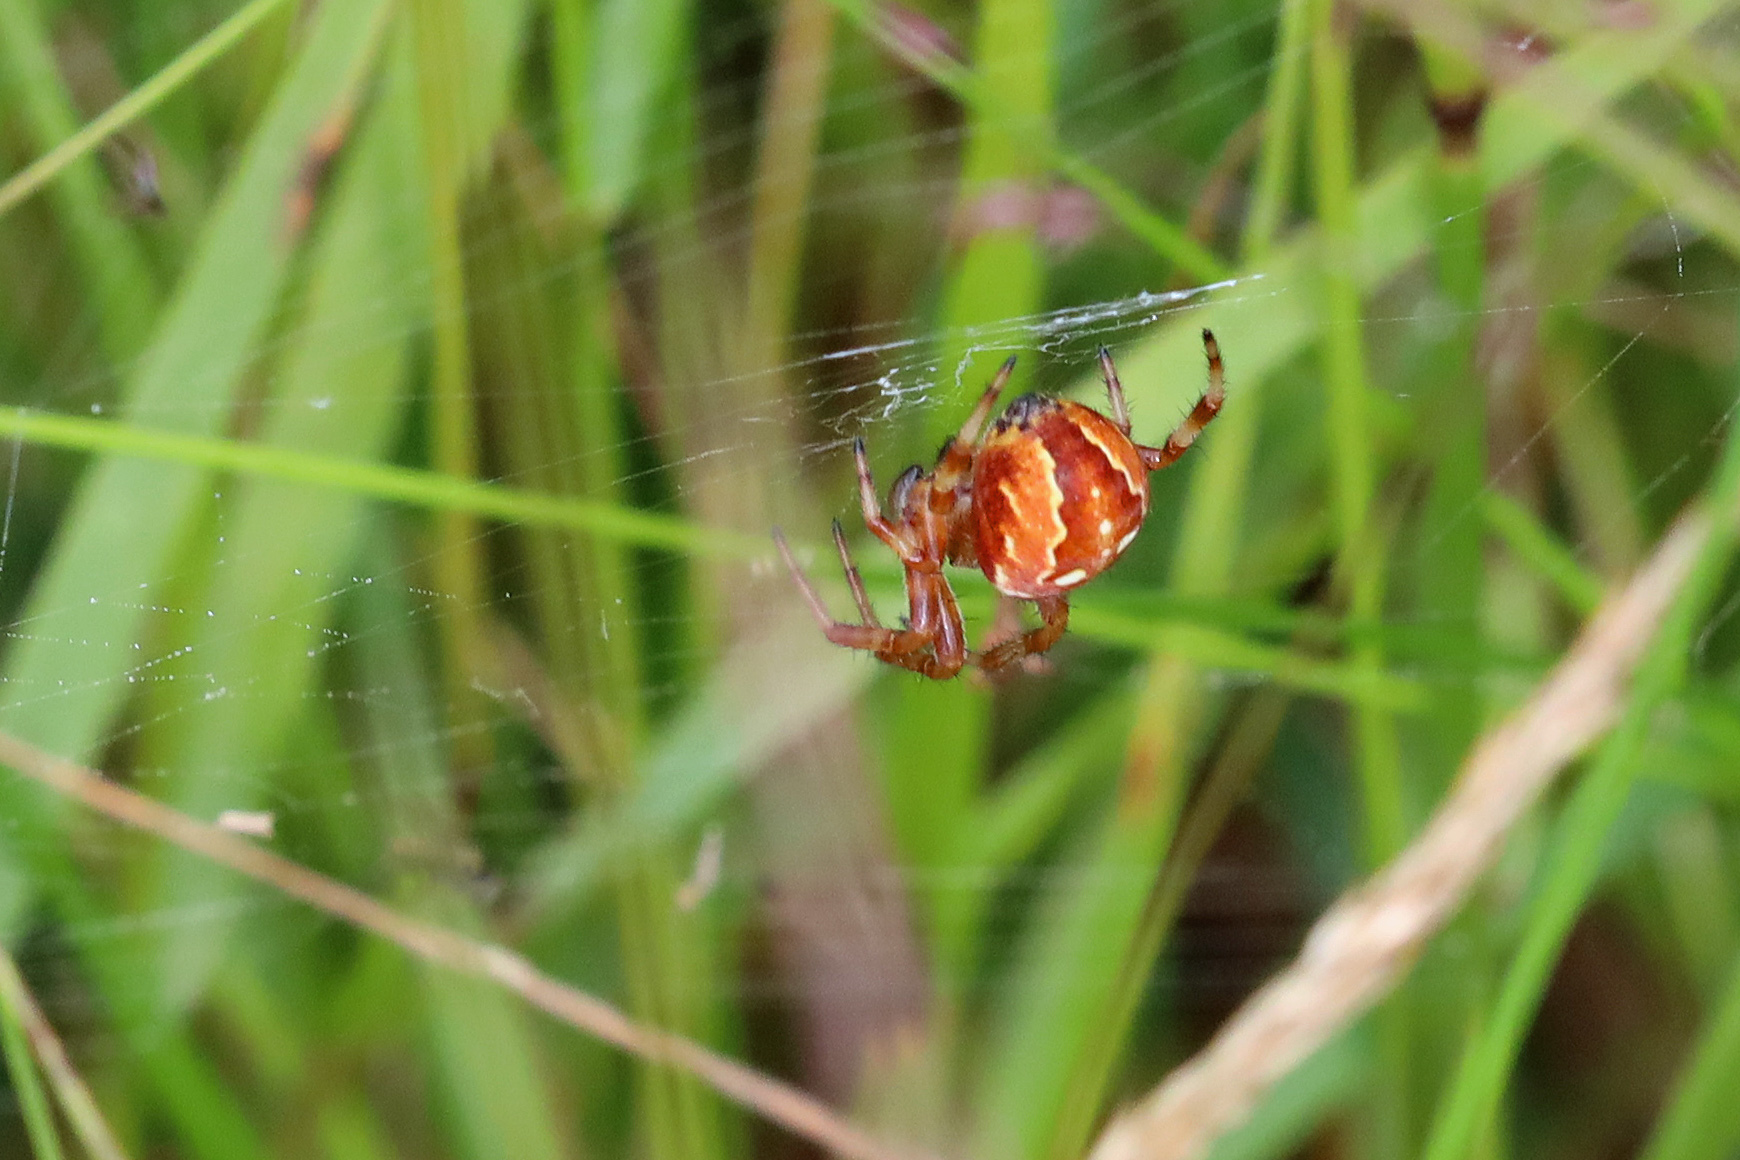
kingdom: Animalia
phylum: Arthropoda
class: Arachnida
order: Araneae
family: Araneidae
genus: Araneus
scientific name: Araneus diadematus
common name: Cross orbweaver
